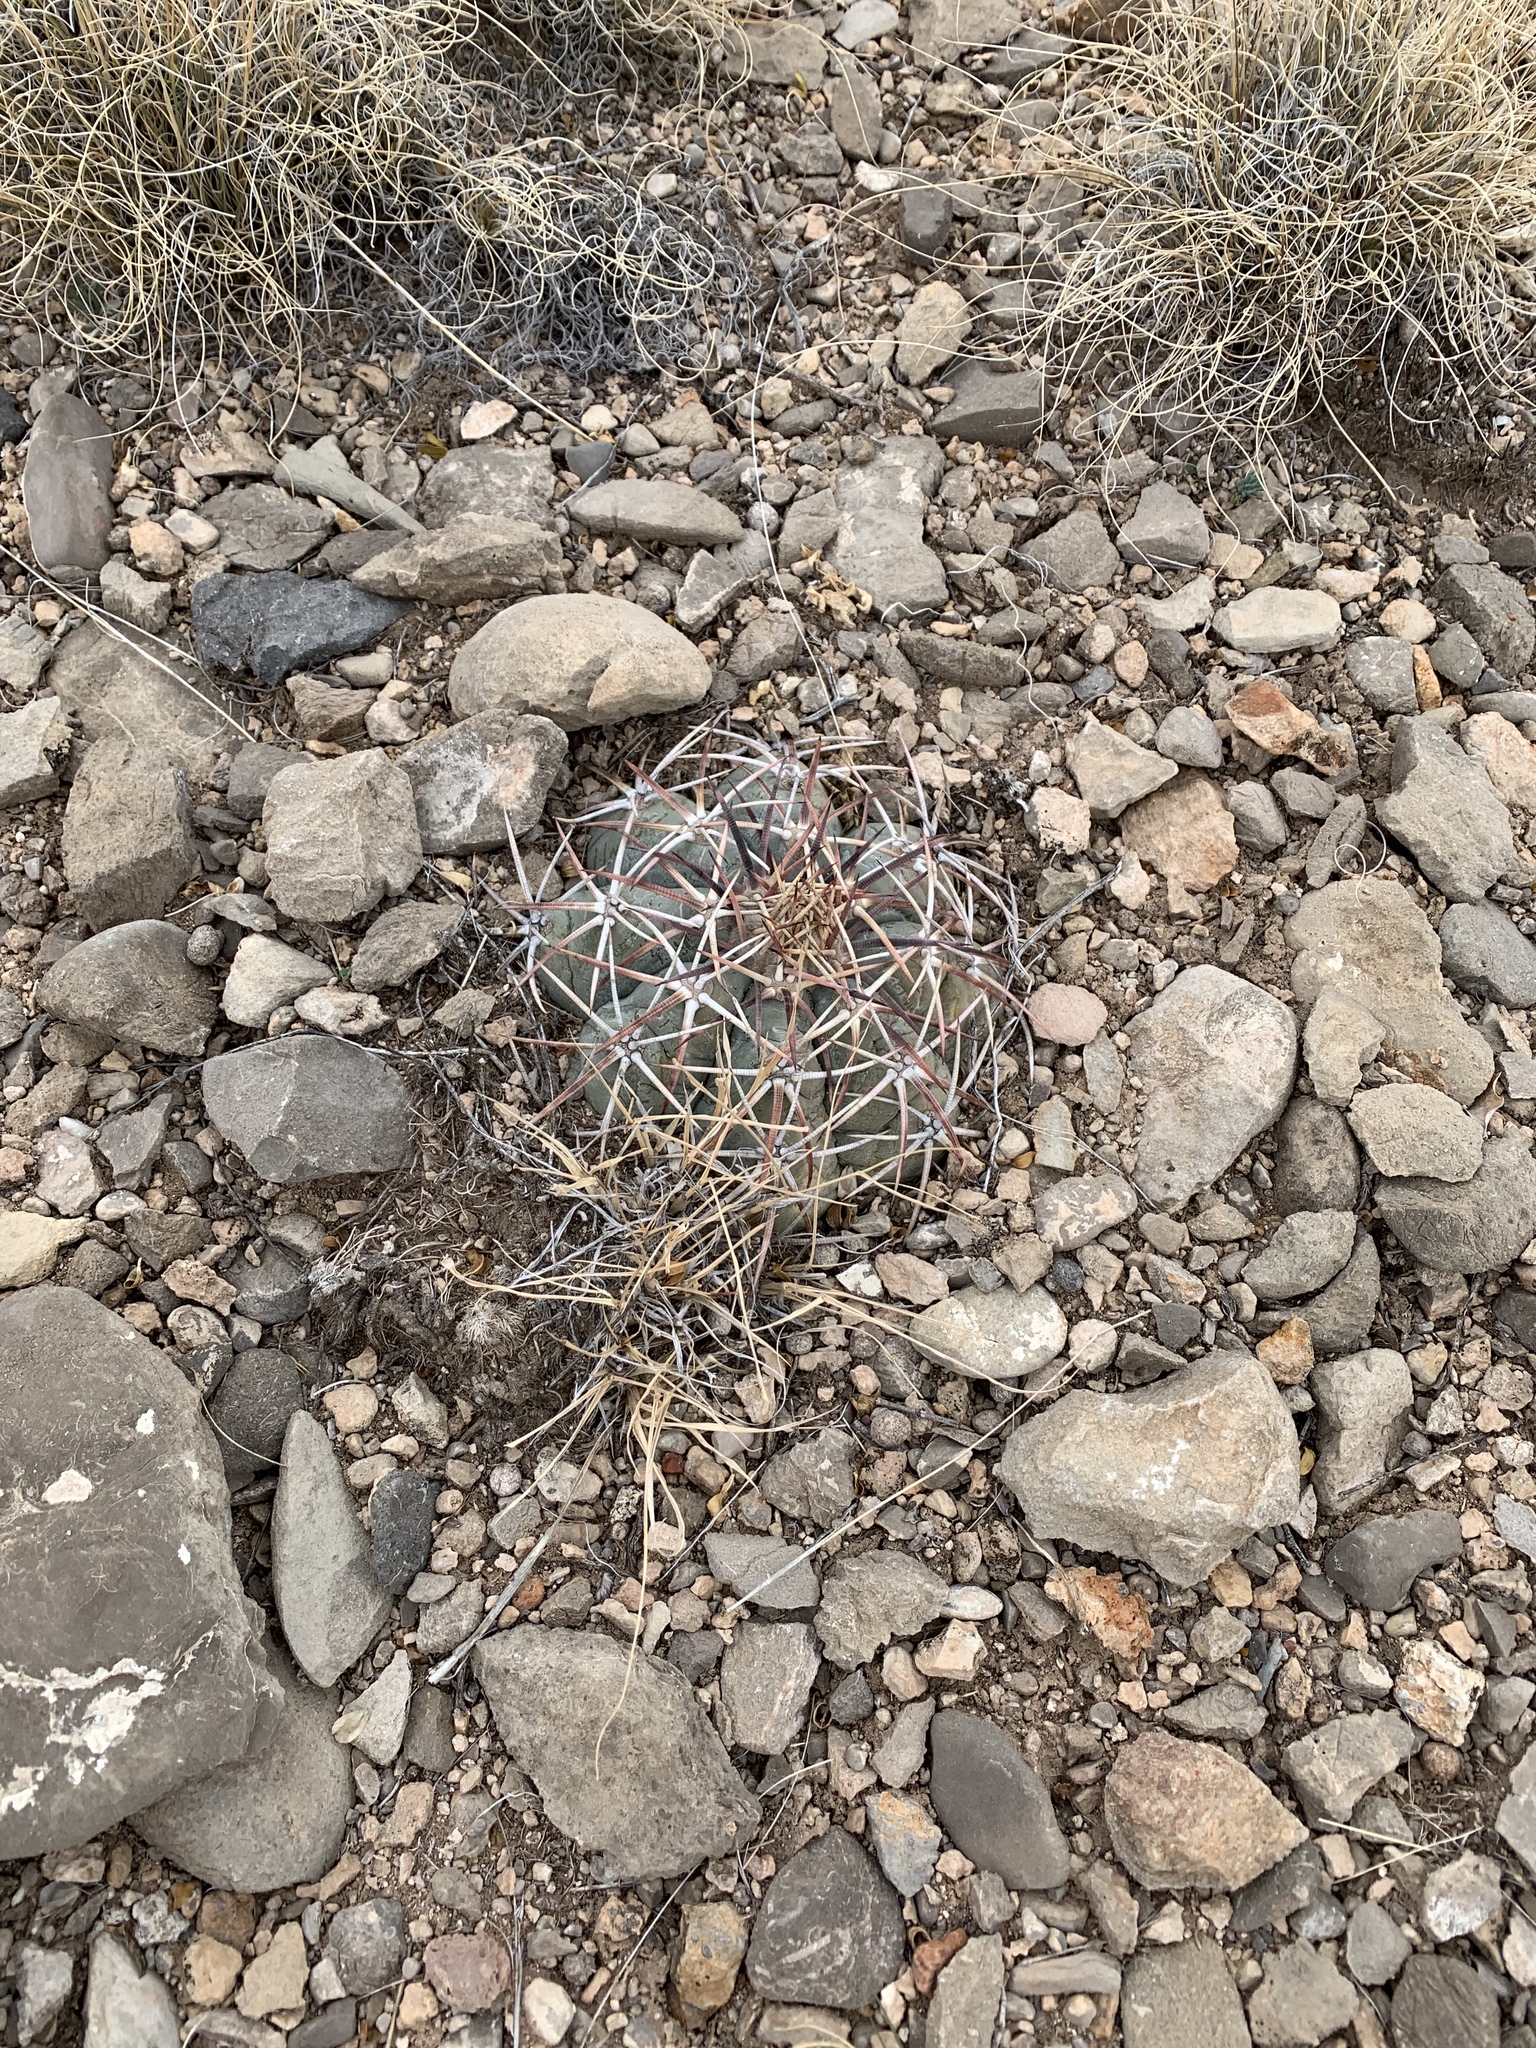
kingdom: Plantae
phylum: Tracheophyta
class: Magnoliopsida
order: Caryophyllales
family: Cactaceae
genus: Echinocactus
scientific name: Echinocactus horizonthalonius
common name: Devilshead
